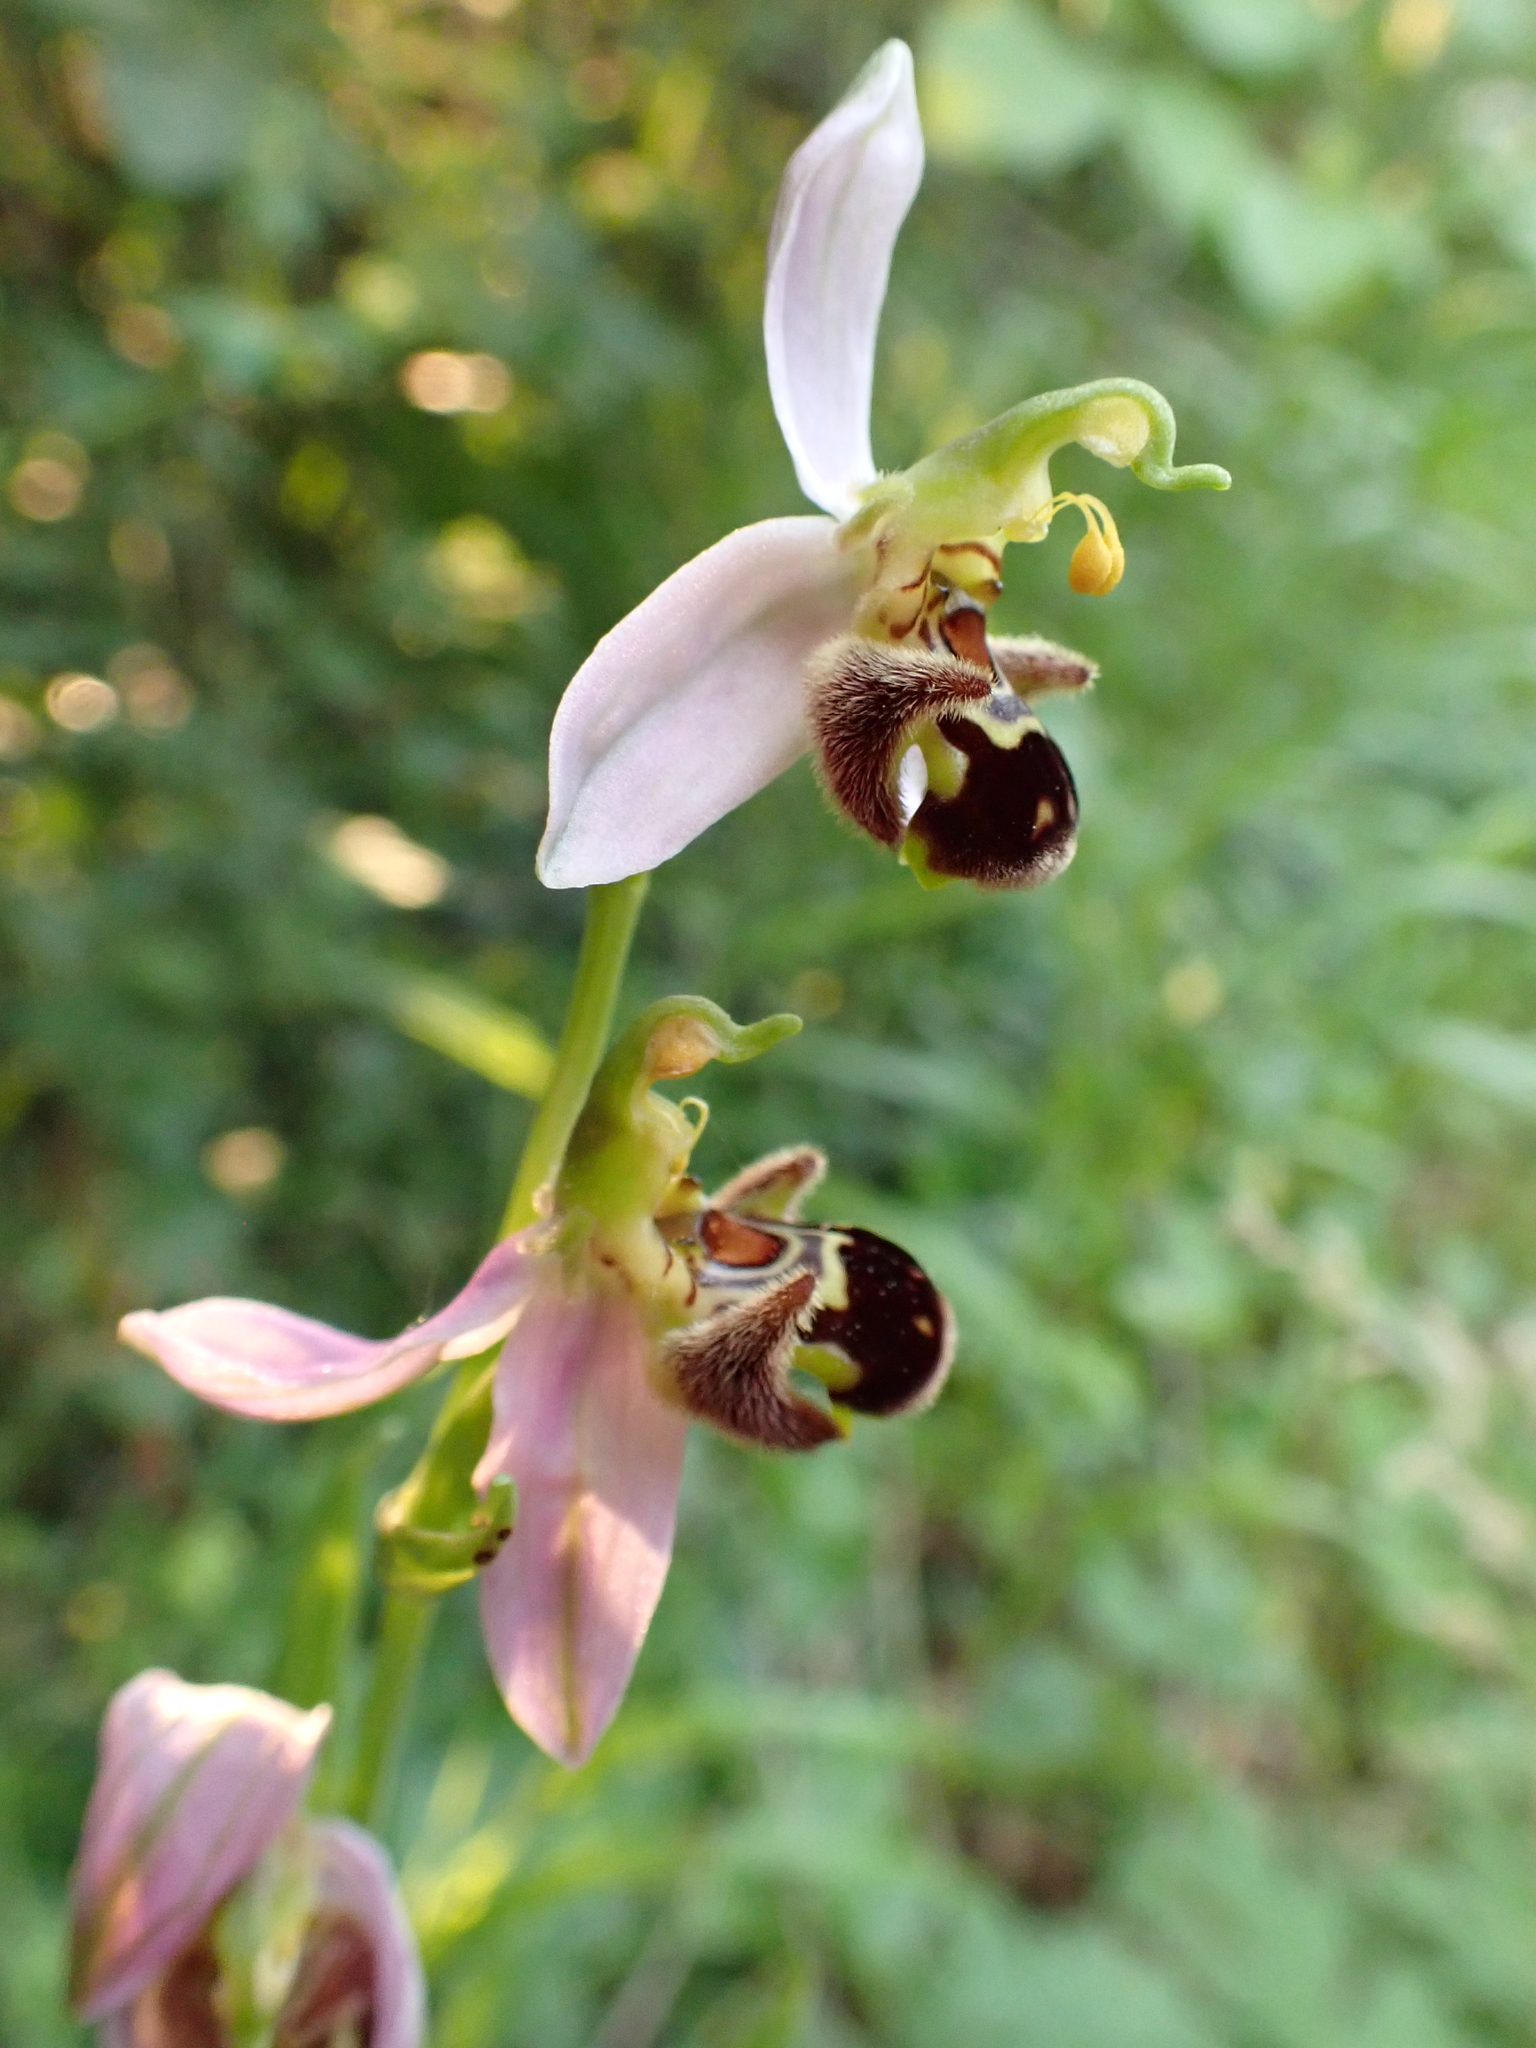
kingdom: Plantae
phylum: Tracheophyta
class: Liliopsida
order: Asparagales
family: Orchidaceae
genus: Ophrys
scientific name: Ophrys apifera
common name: Bee orchid
